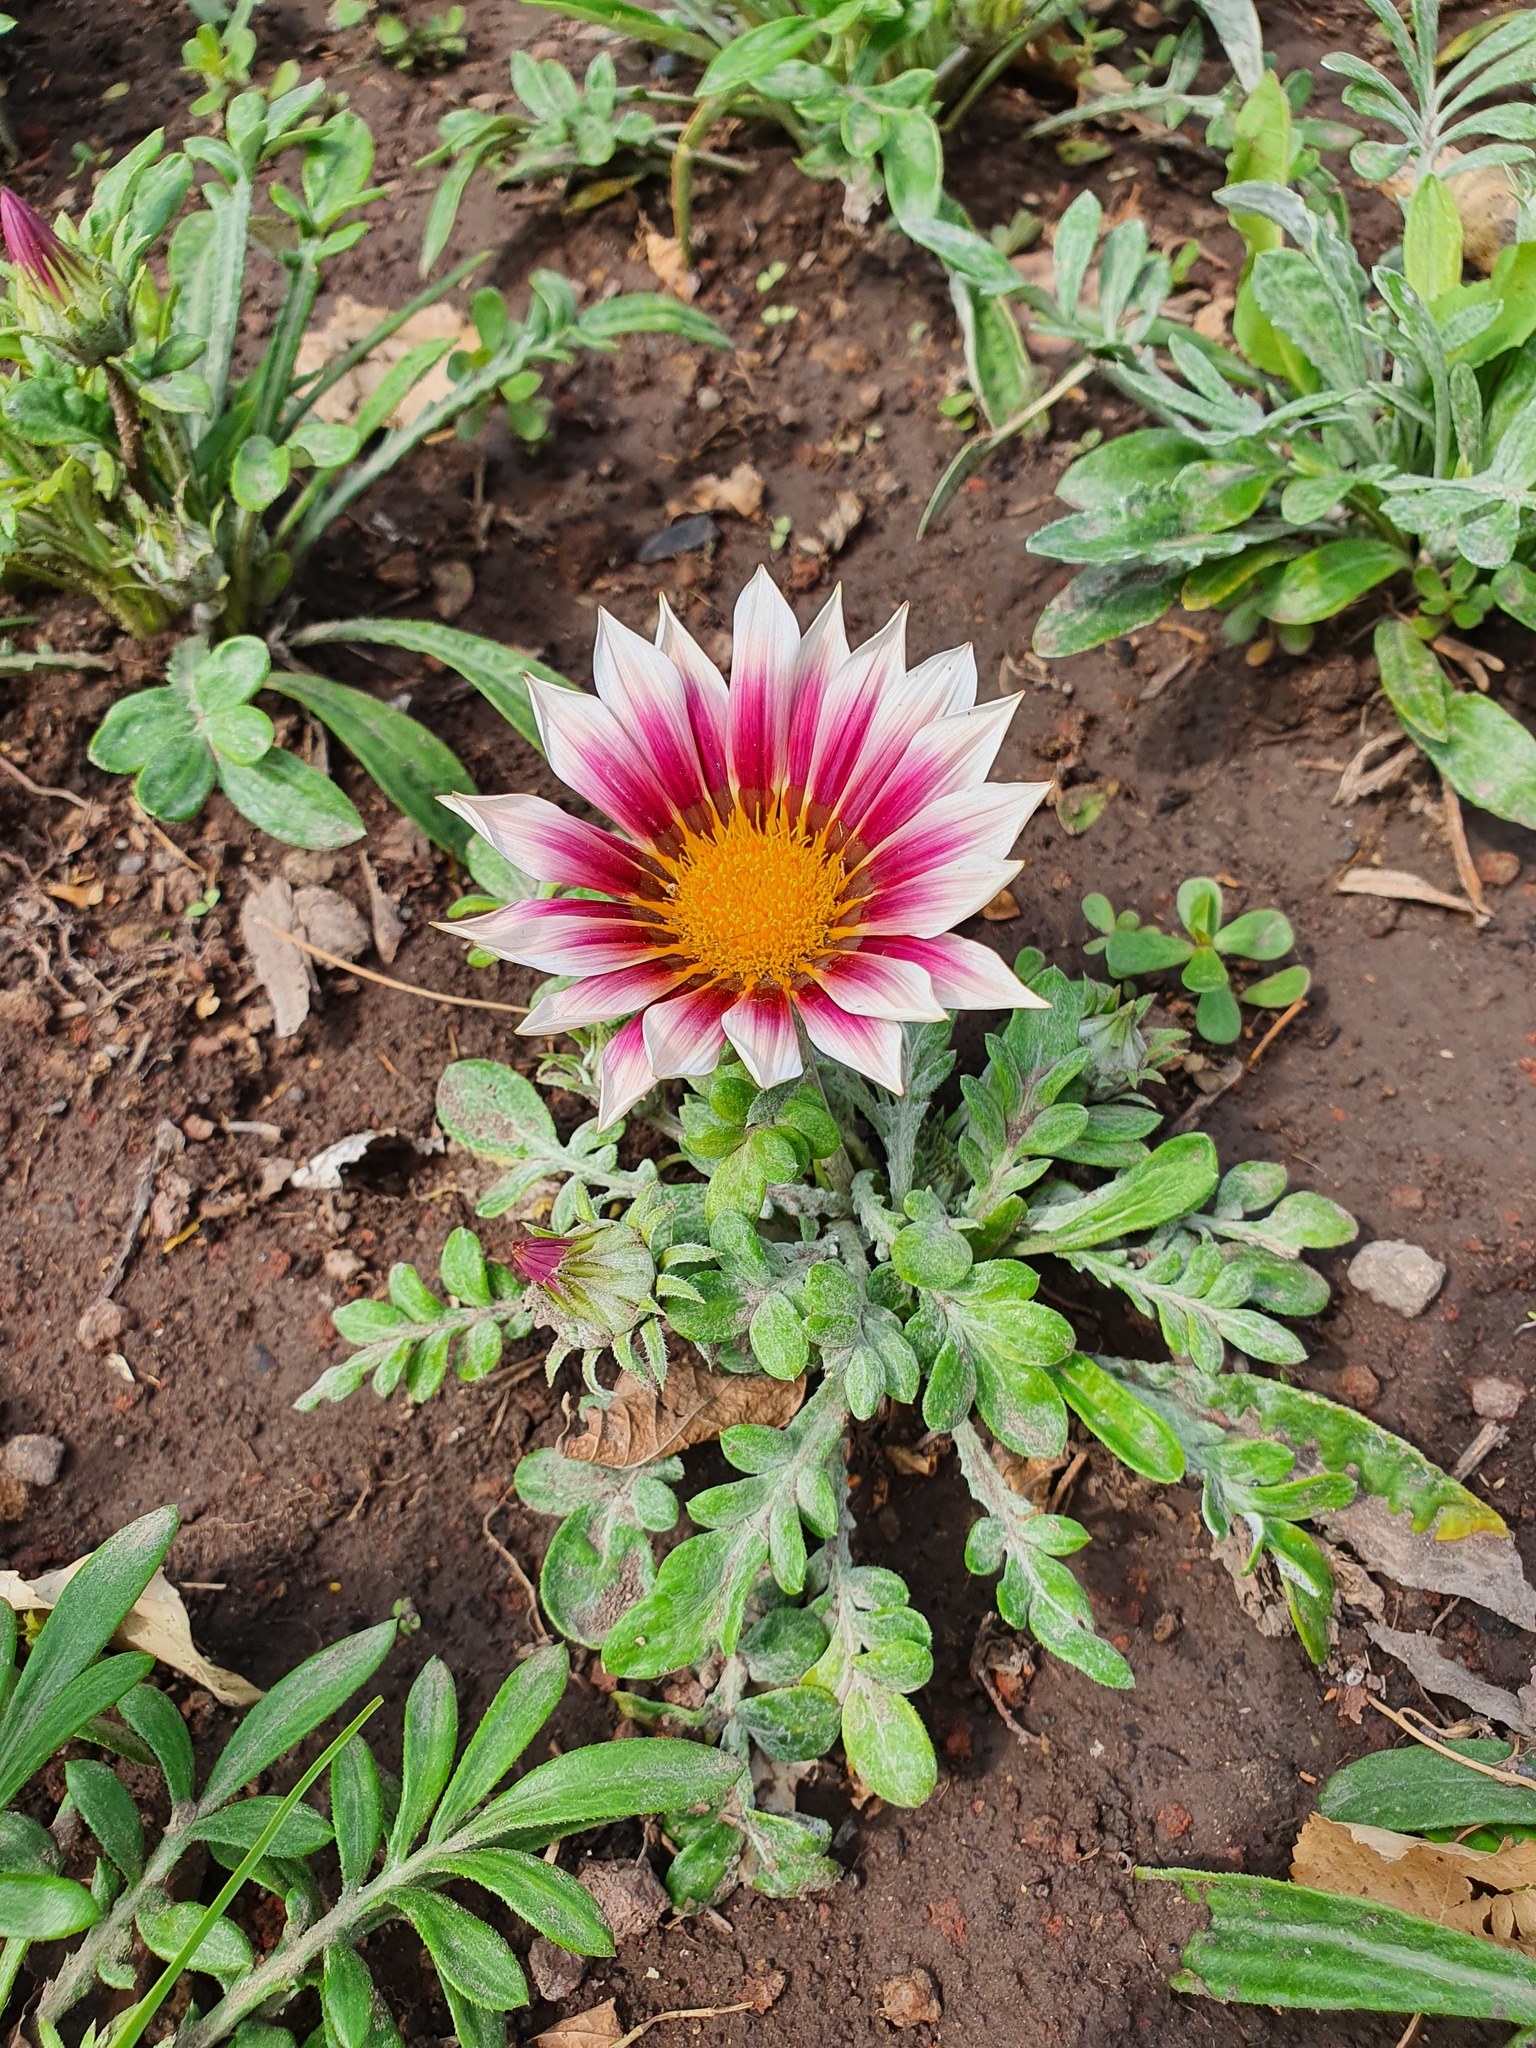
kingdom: Plantae
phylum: Tracheophyta
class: Magnoliopsida
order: Asterales
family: Asteraceae
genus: Gazania
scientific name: Gazania splendens
